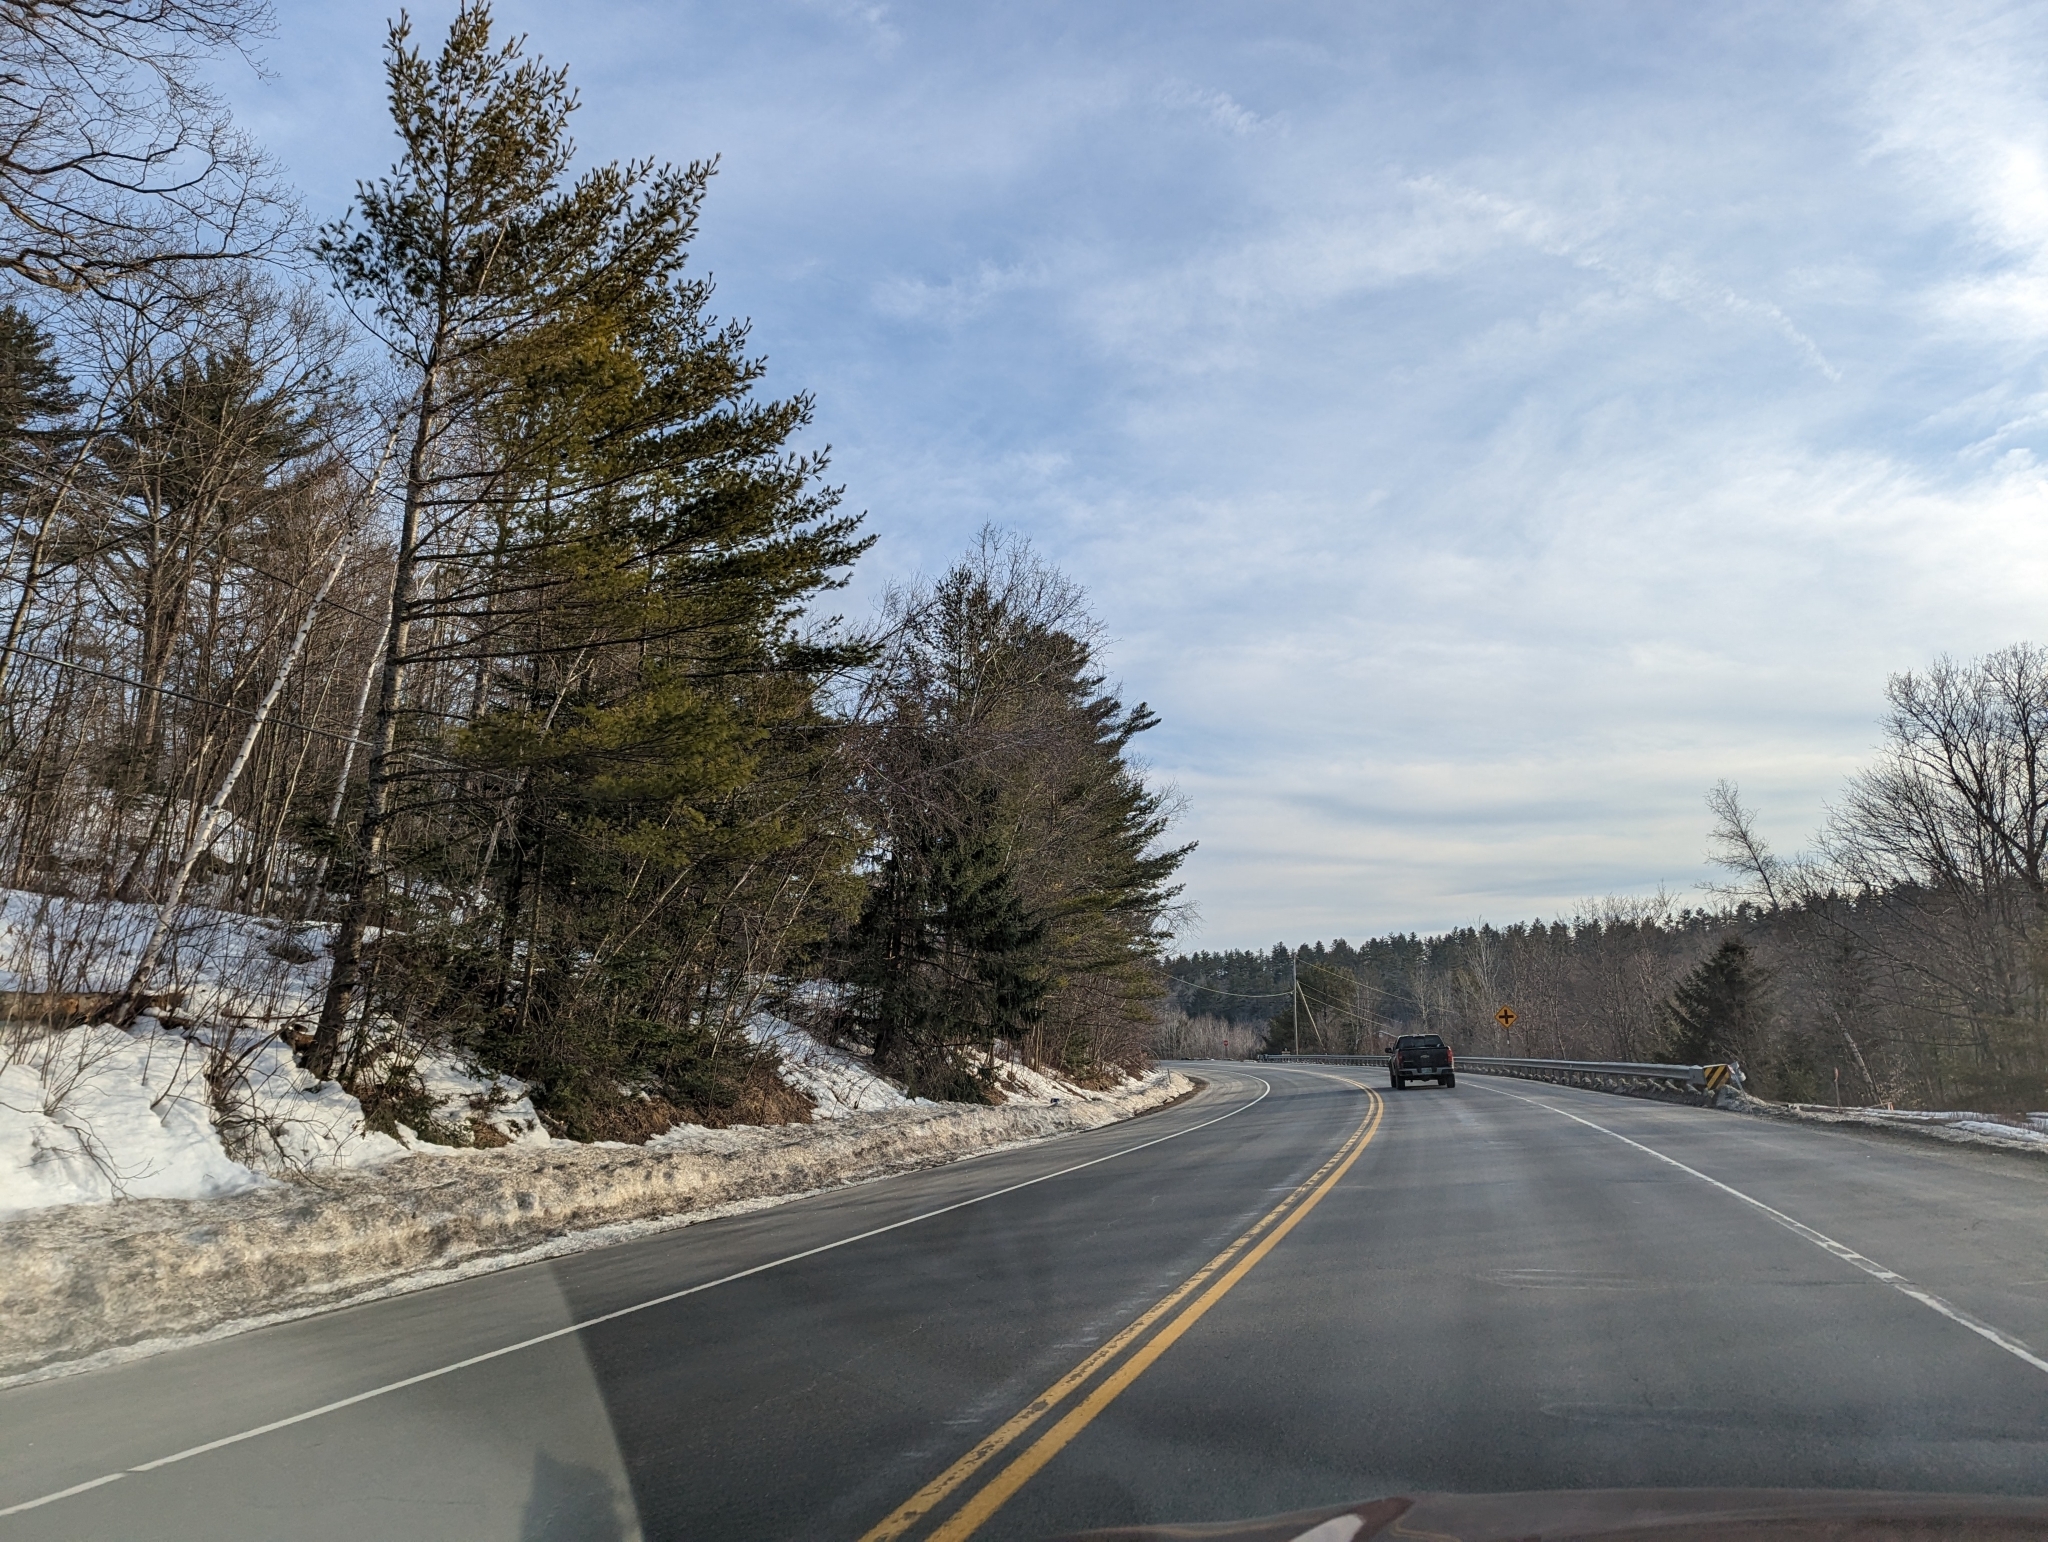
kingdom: Plantae
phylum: Tracheophyta
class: Pinopsida
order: Pinales
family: Pinaceae
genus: Pinus
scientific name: Pinus strobus
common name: Weymouth pine
